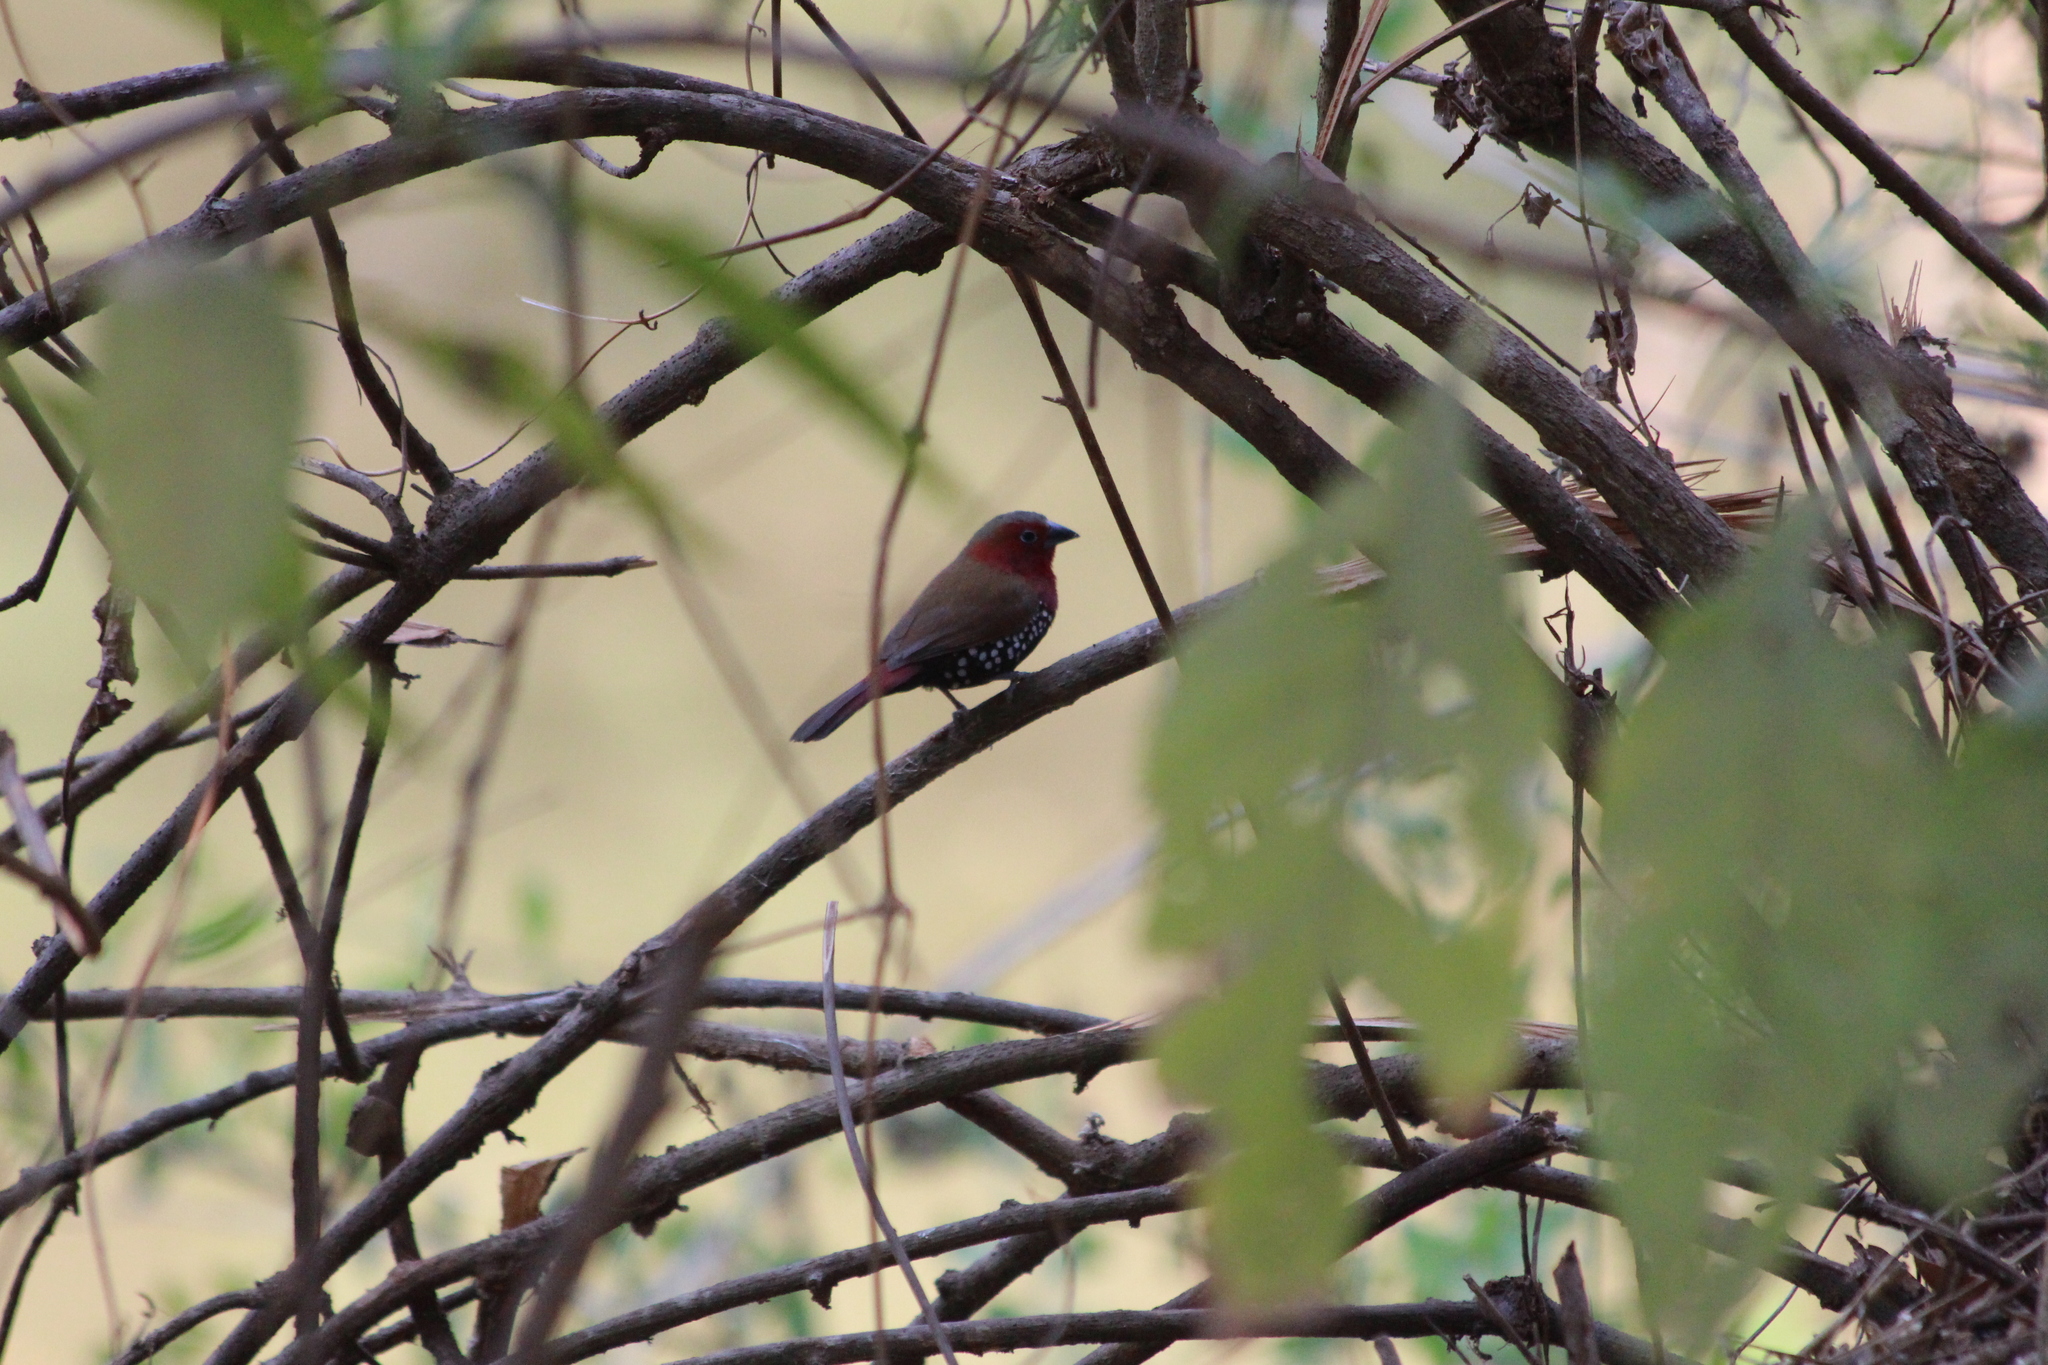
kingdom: Animalia
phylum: Chordata
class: Aves
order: Passeriformes
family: Estrildidae
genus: Hypargos
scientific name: Hypargos niveoguttatus
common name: Red-throated twinspot
